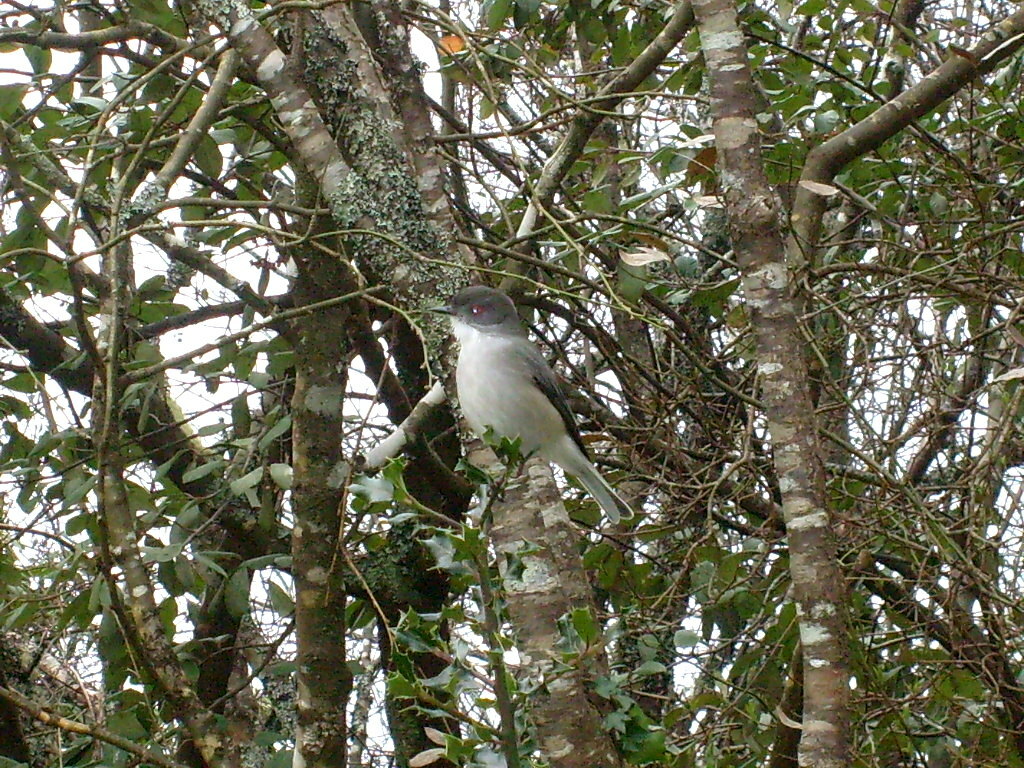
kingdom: Animalia
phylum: Chordata
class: Aves
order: Passeriformes
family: Tyrannidae
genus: Xolmis
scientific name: Xolmis pyrope
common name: Fire-eyed diucon
